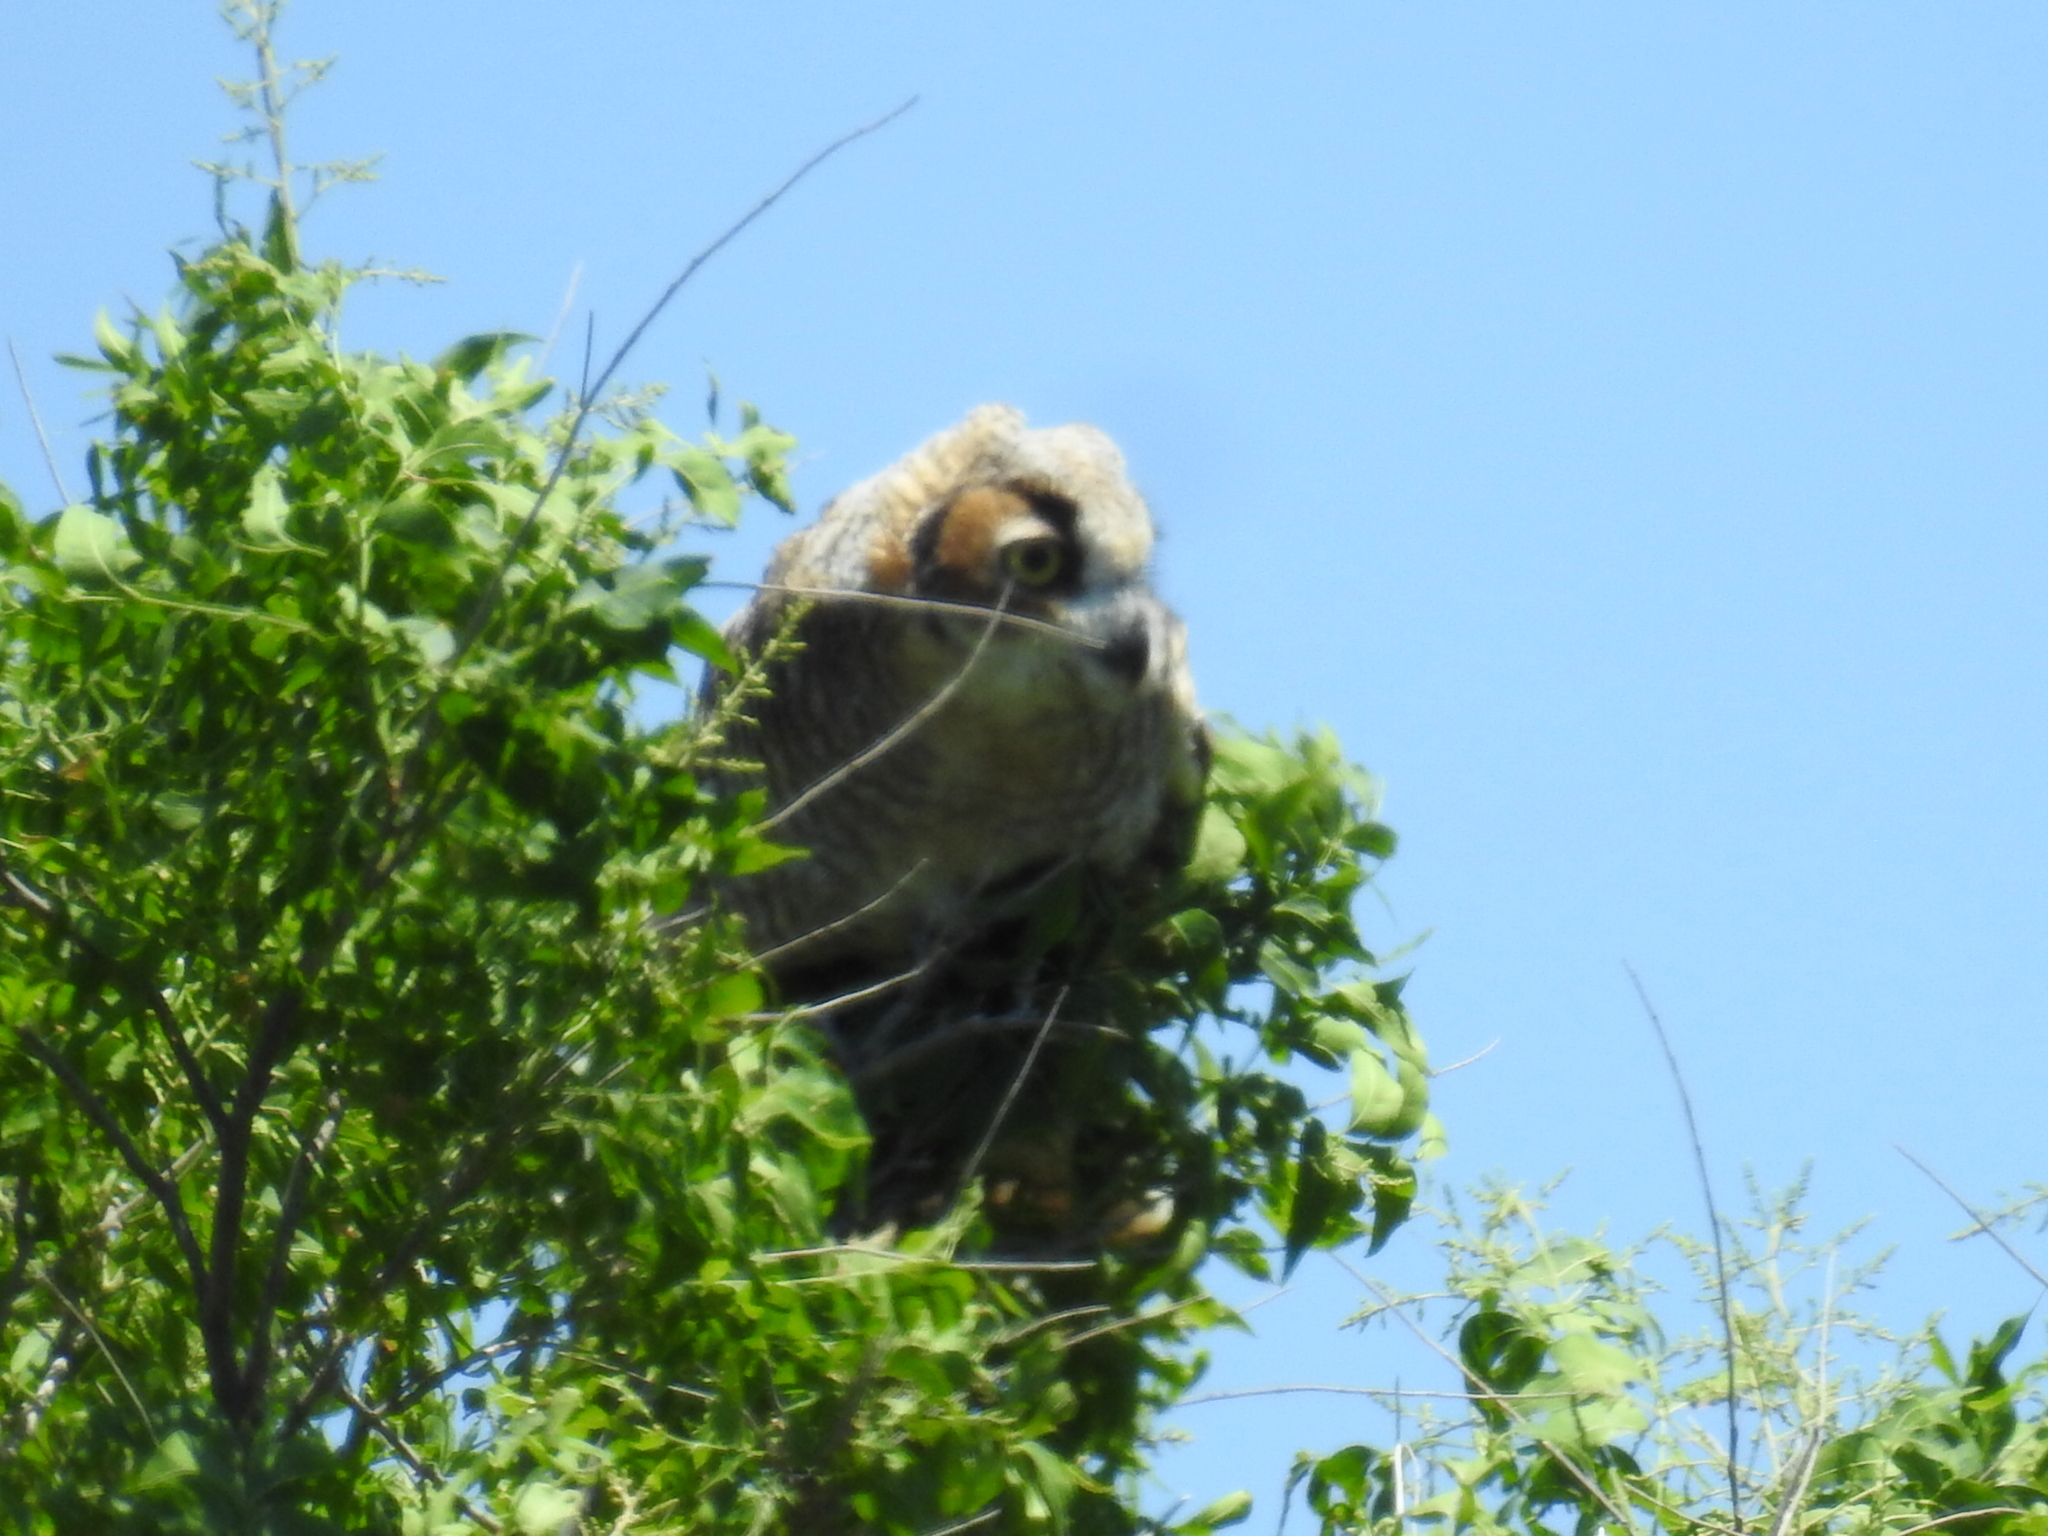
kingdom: Animalia
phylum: Chordata
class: Aves
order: Strigiformes
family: Strigidae
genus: Bubo
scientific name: Bubo virginianus
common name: Great horned owl
